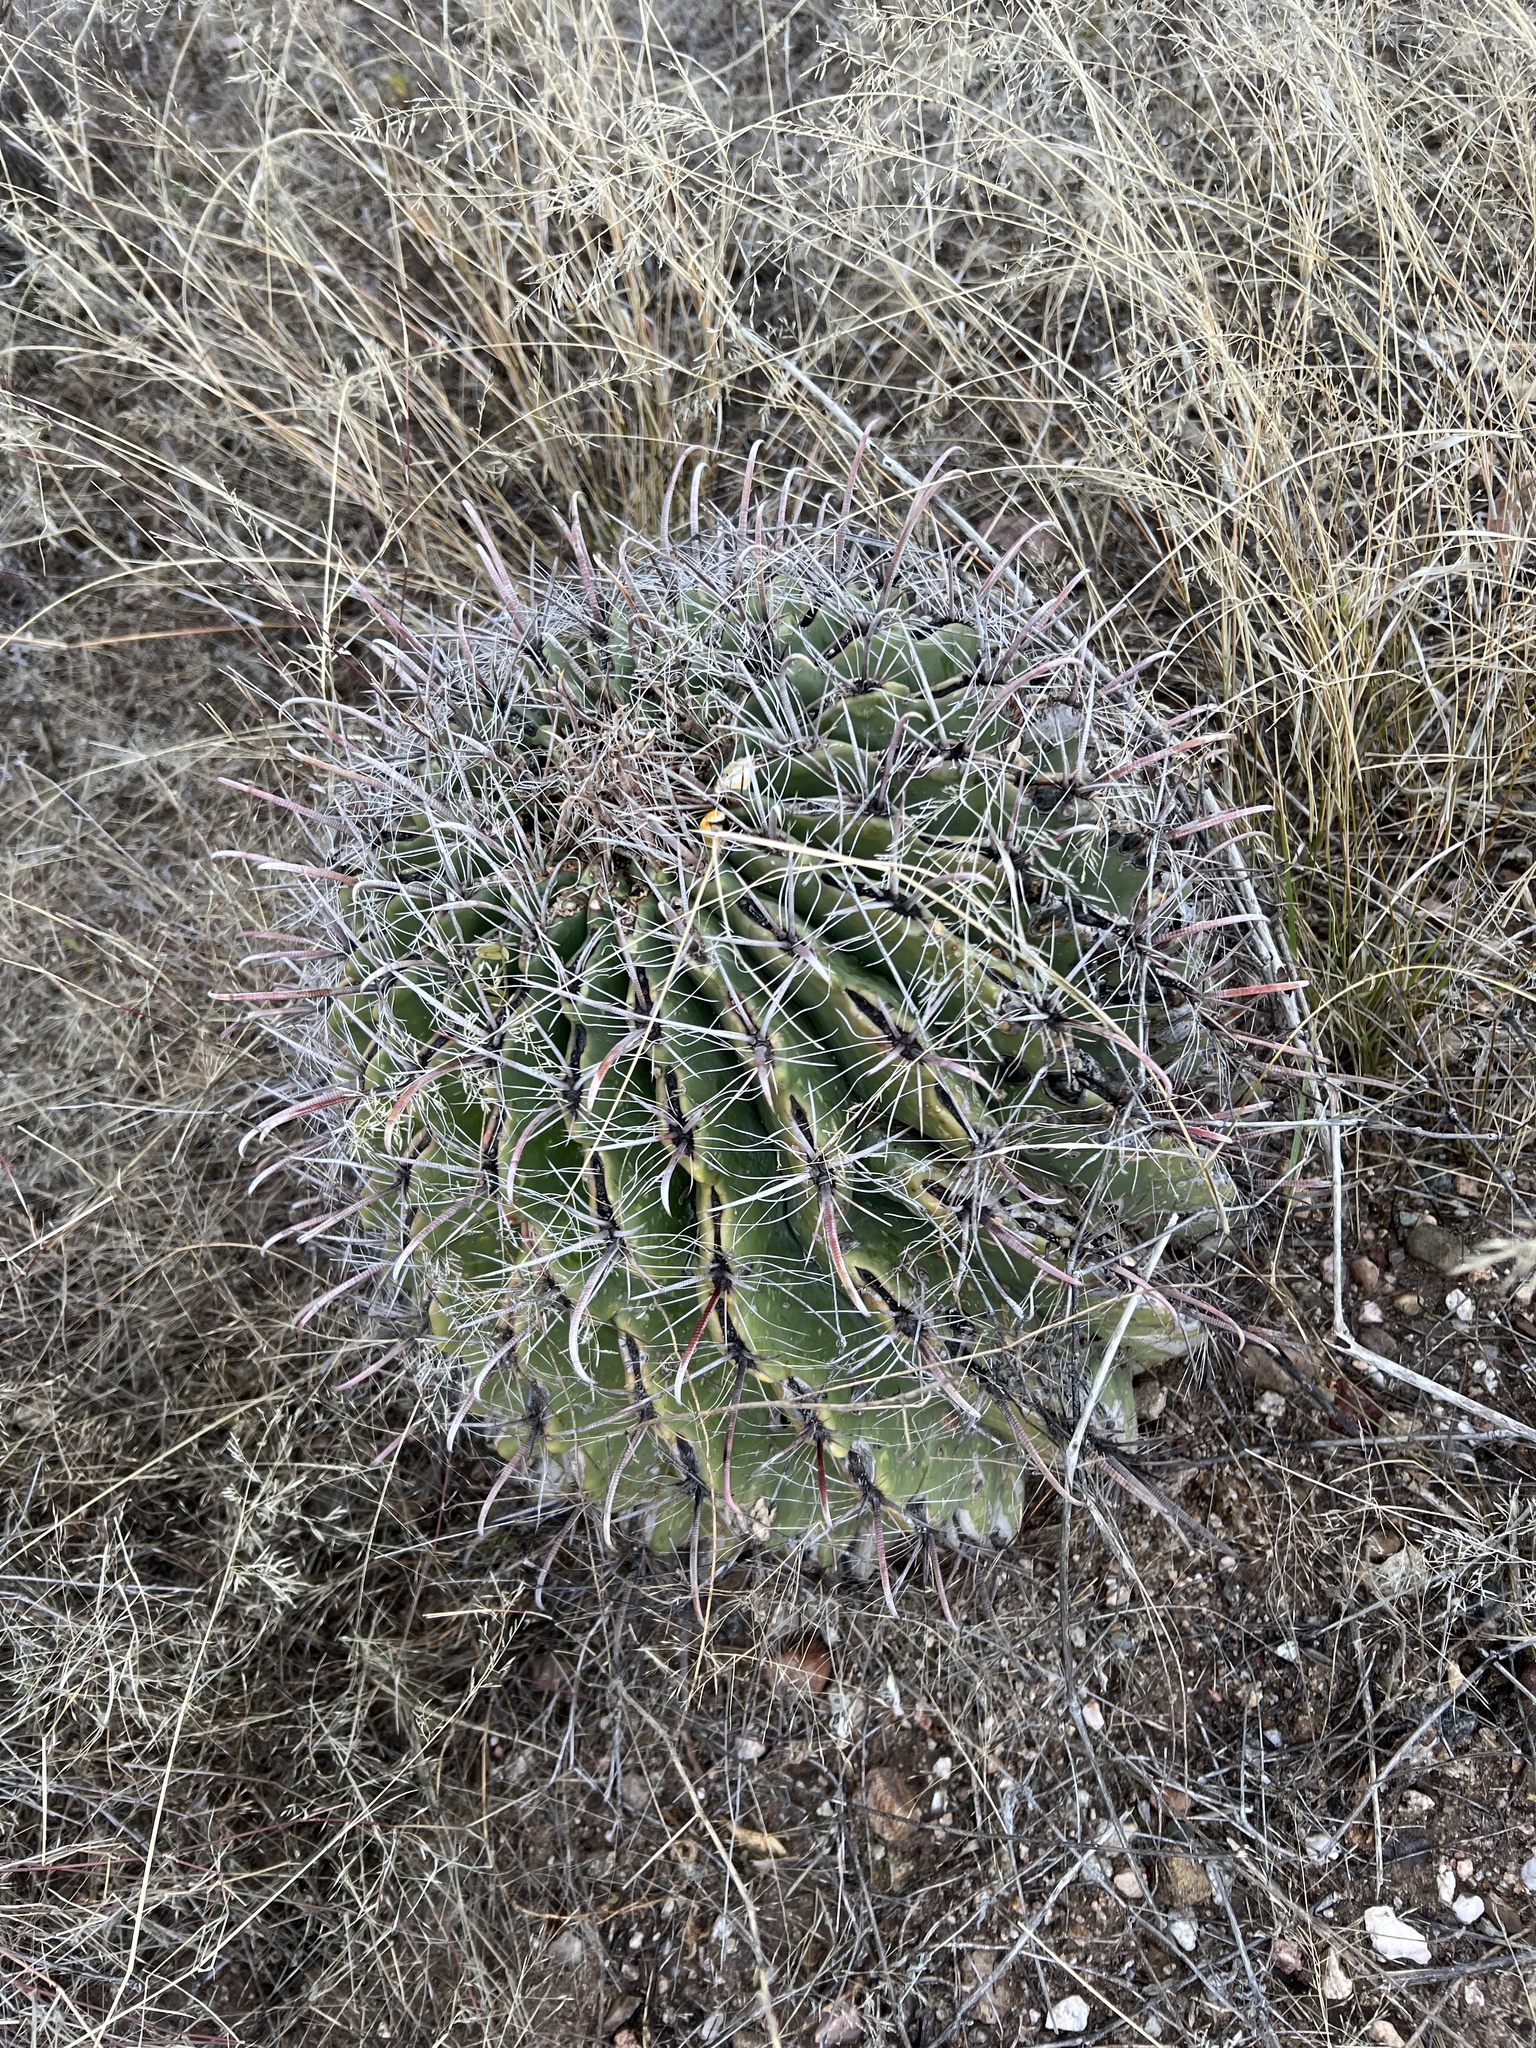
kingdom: Plantae
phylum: Tracheophyta
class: Magnoliopsida
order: Caryophyllales
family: Cactaceae
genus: Ferocactus
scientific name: Ferocactus wislizeni
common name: Candy barrel cactus
